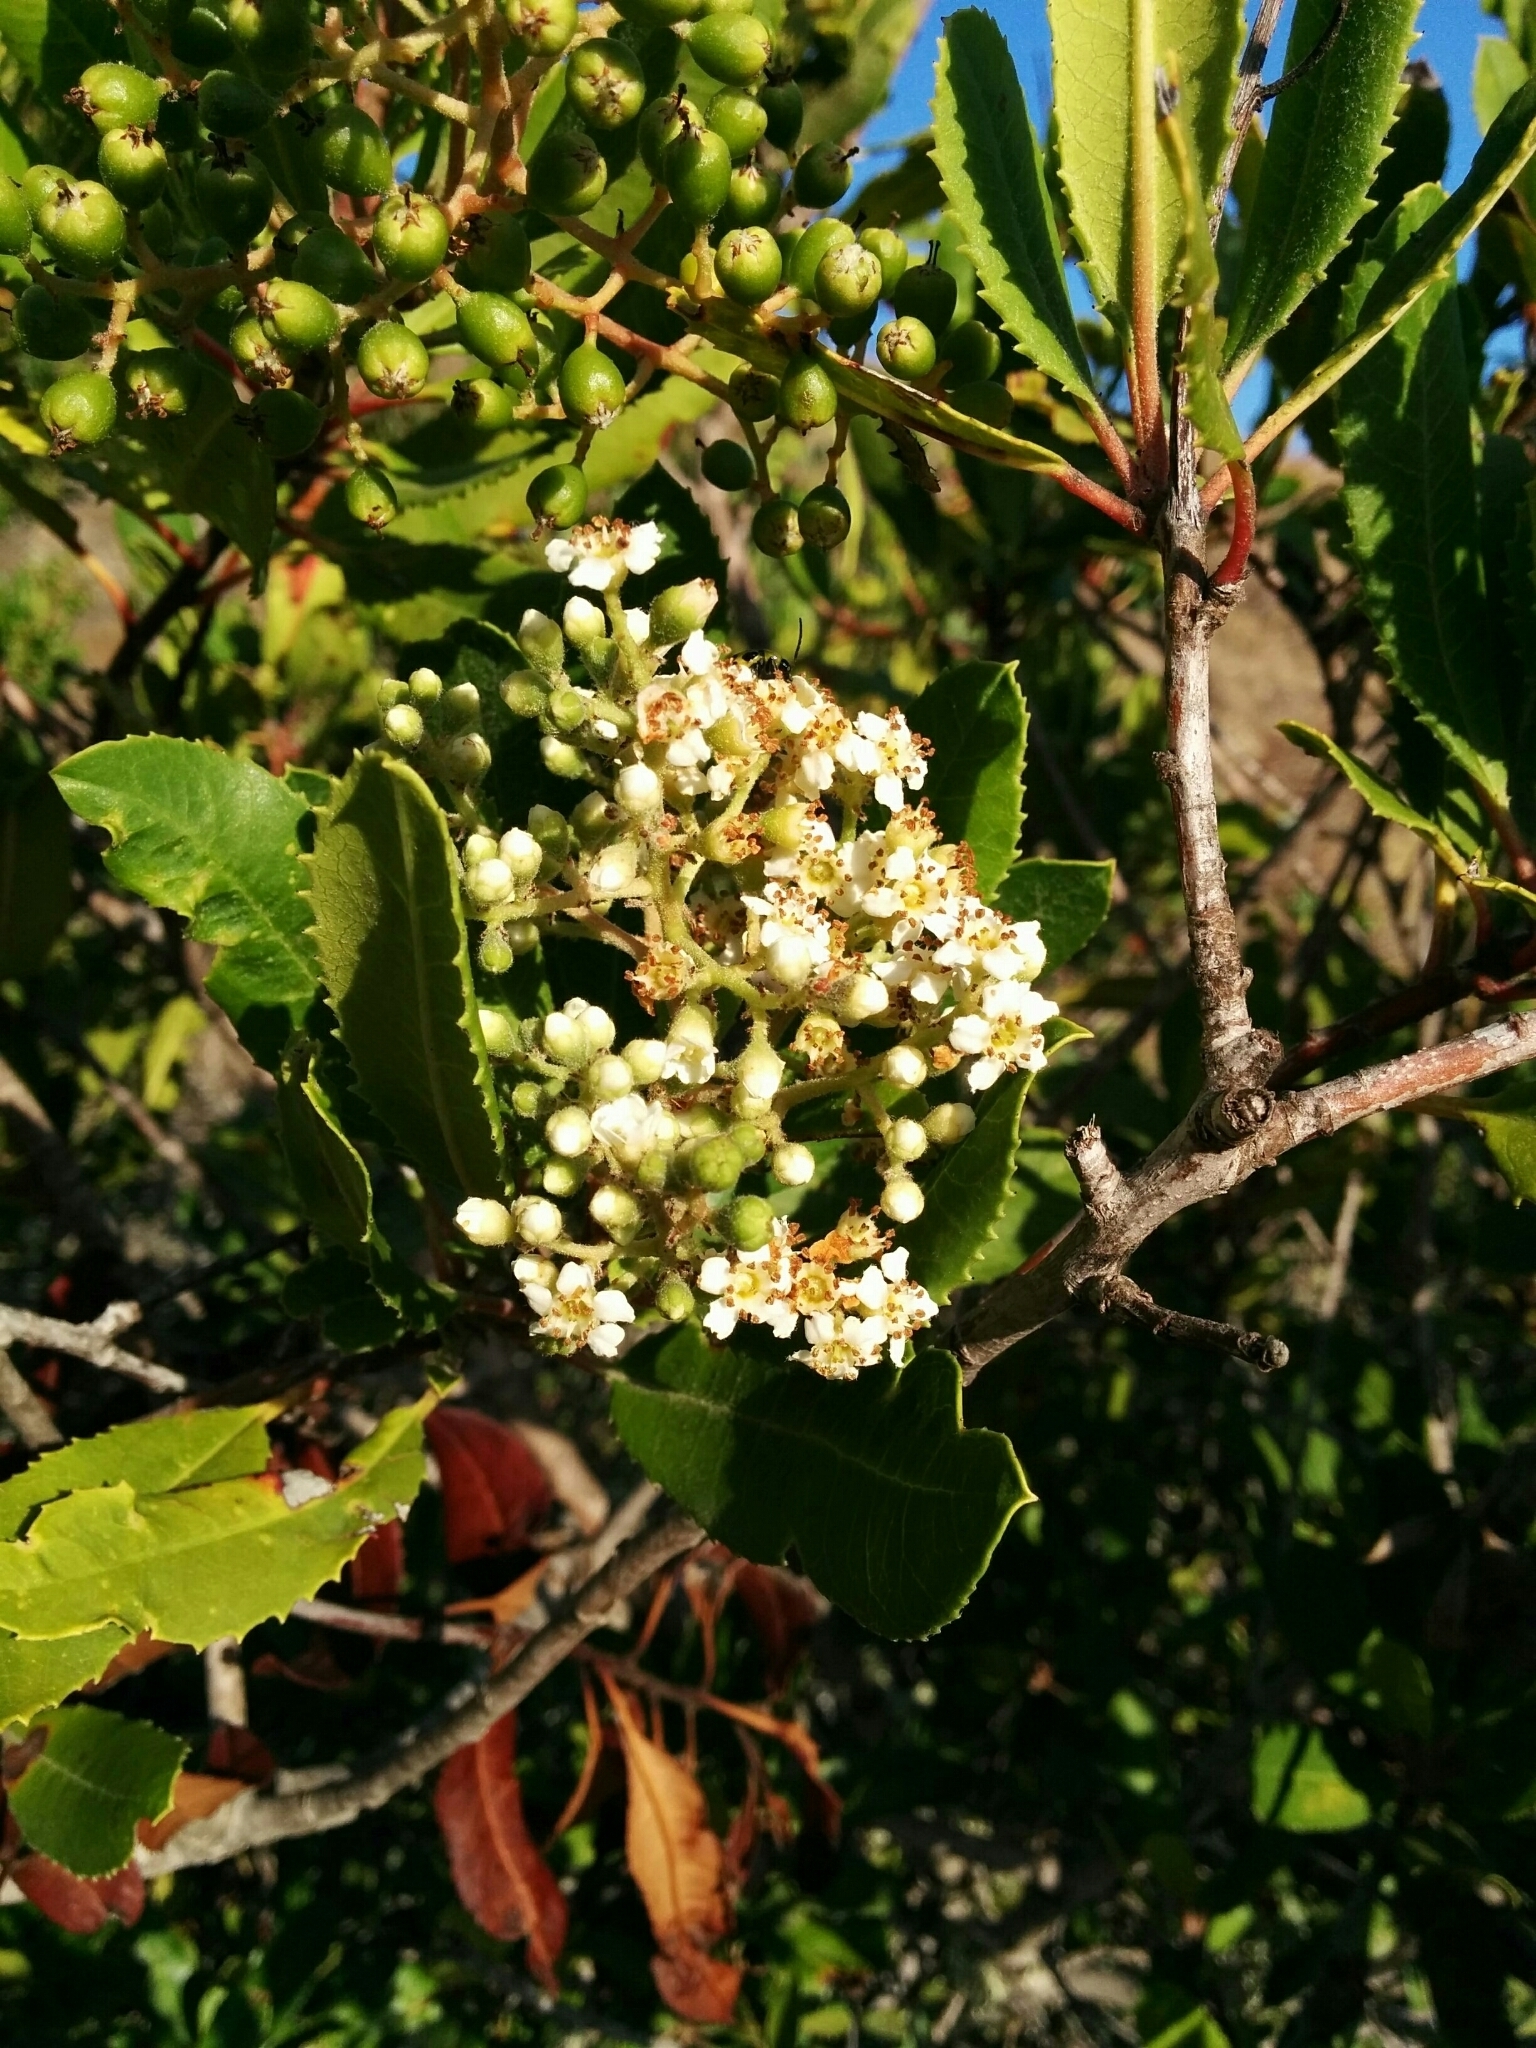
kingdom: Plantae
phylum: Tracheophyta
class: Magnoliopsida
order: Rosales
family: Rosaceae
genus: Heteromeles
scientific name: Heteromeles arbutifolia
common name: California-holly
